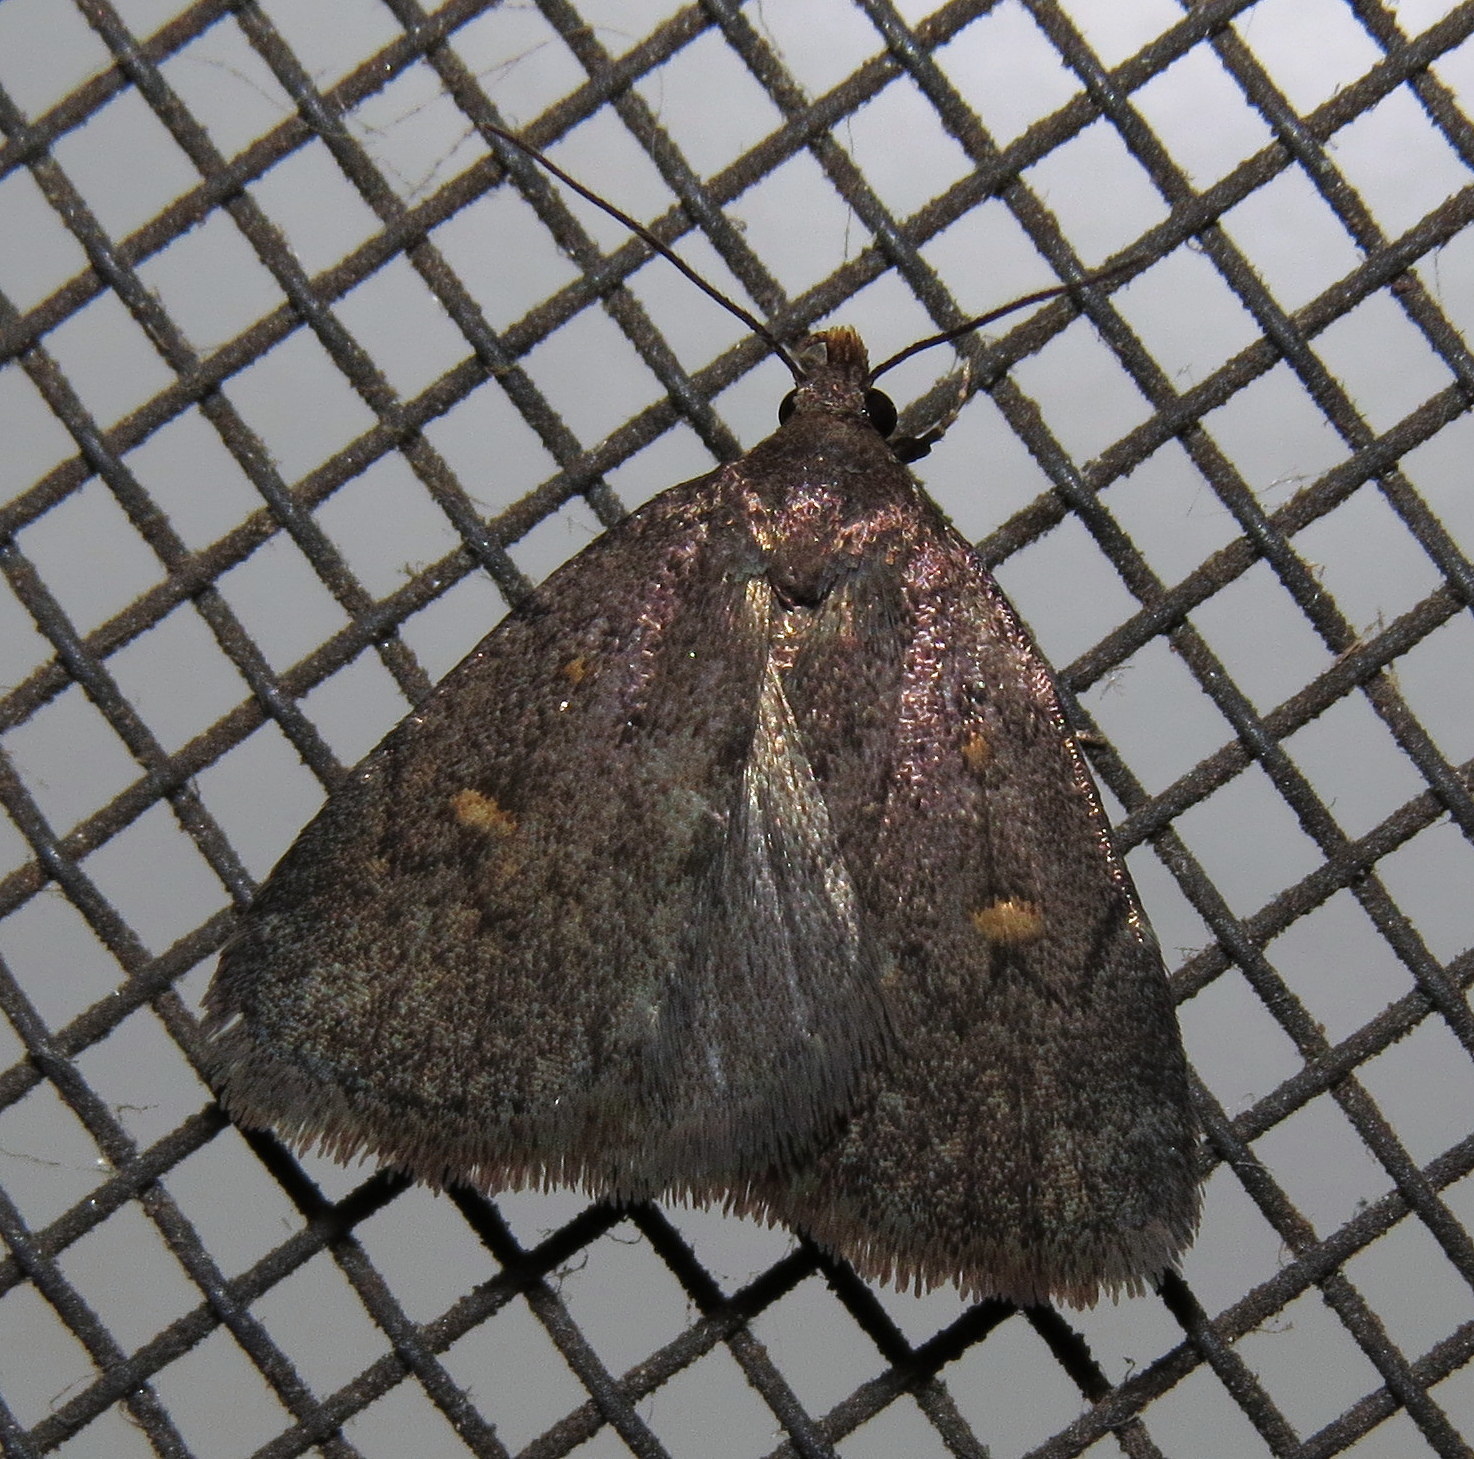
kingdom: Animalia
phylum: Arthropoda
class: Insecta
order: Lepidoptera
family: Erebidae
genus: Idia
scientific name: Idia diminuendis
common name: Orange-spotted idia moth
